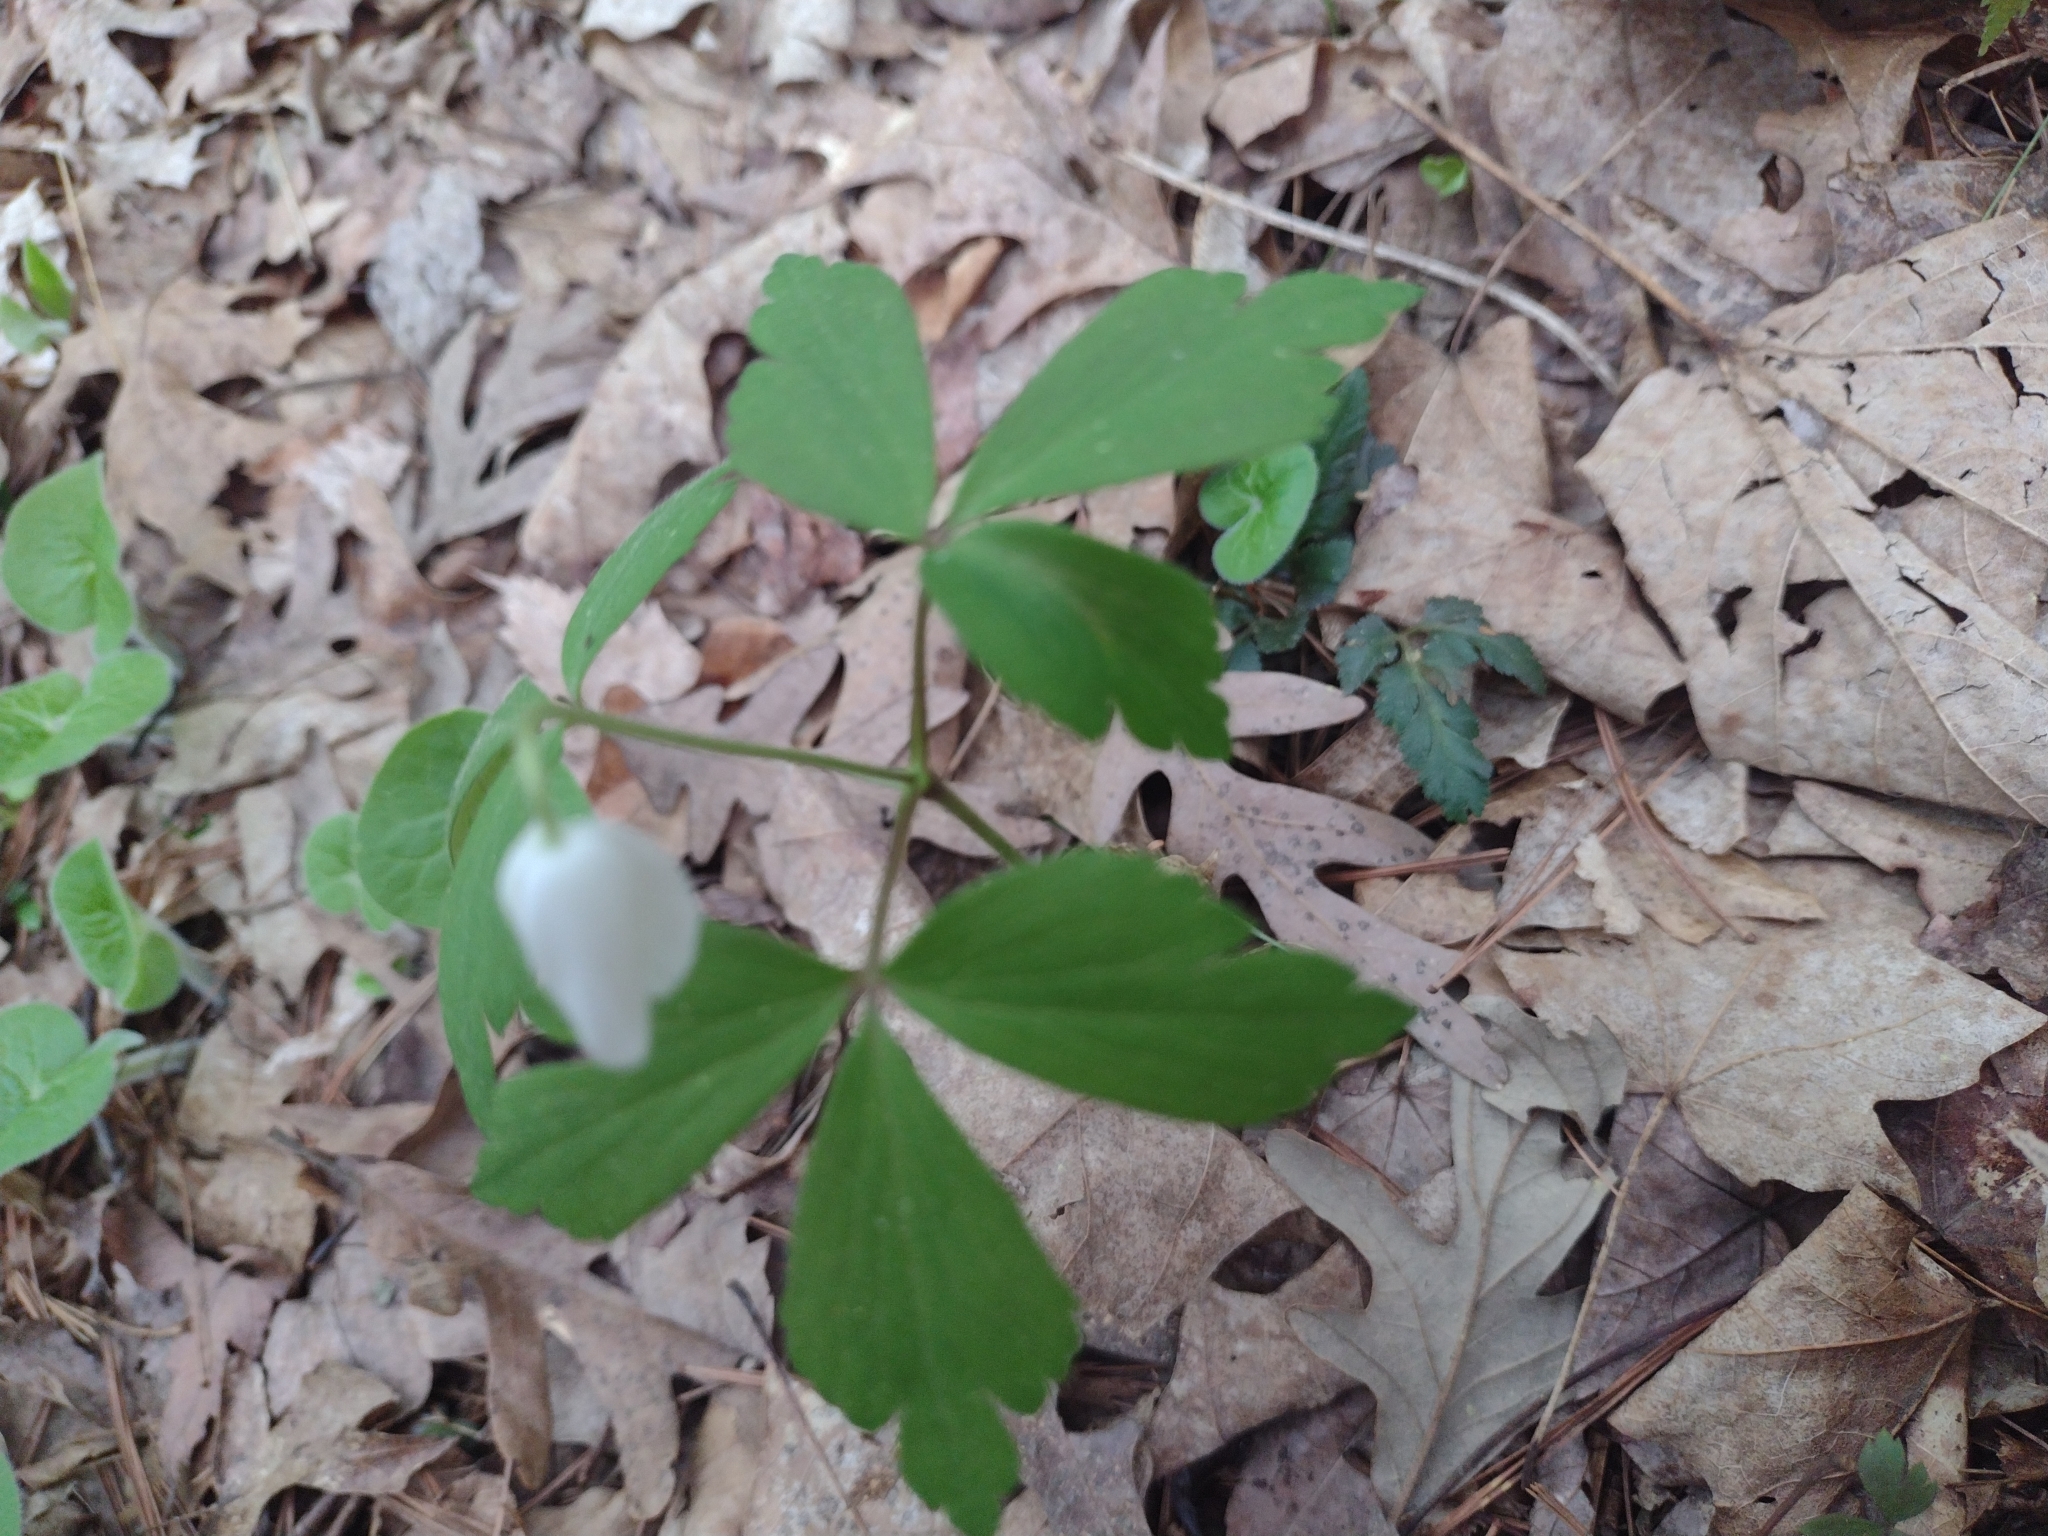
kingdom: Plantae
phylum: Tracheophyta
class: Magnoliopsida
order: Ranunculales
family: Ranunculaceae
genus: Anemone
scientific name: Anemone quinquefolia
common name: Wood anemone
